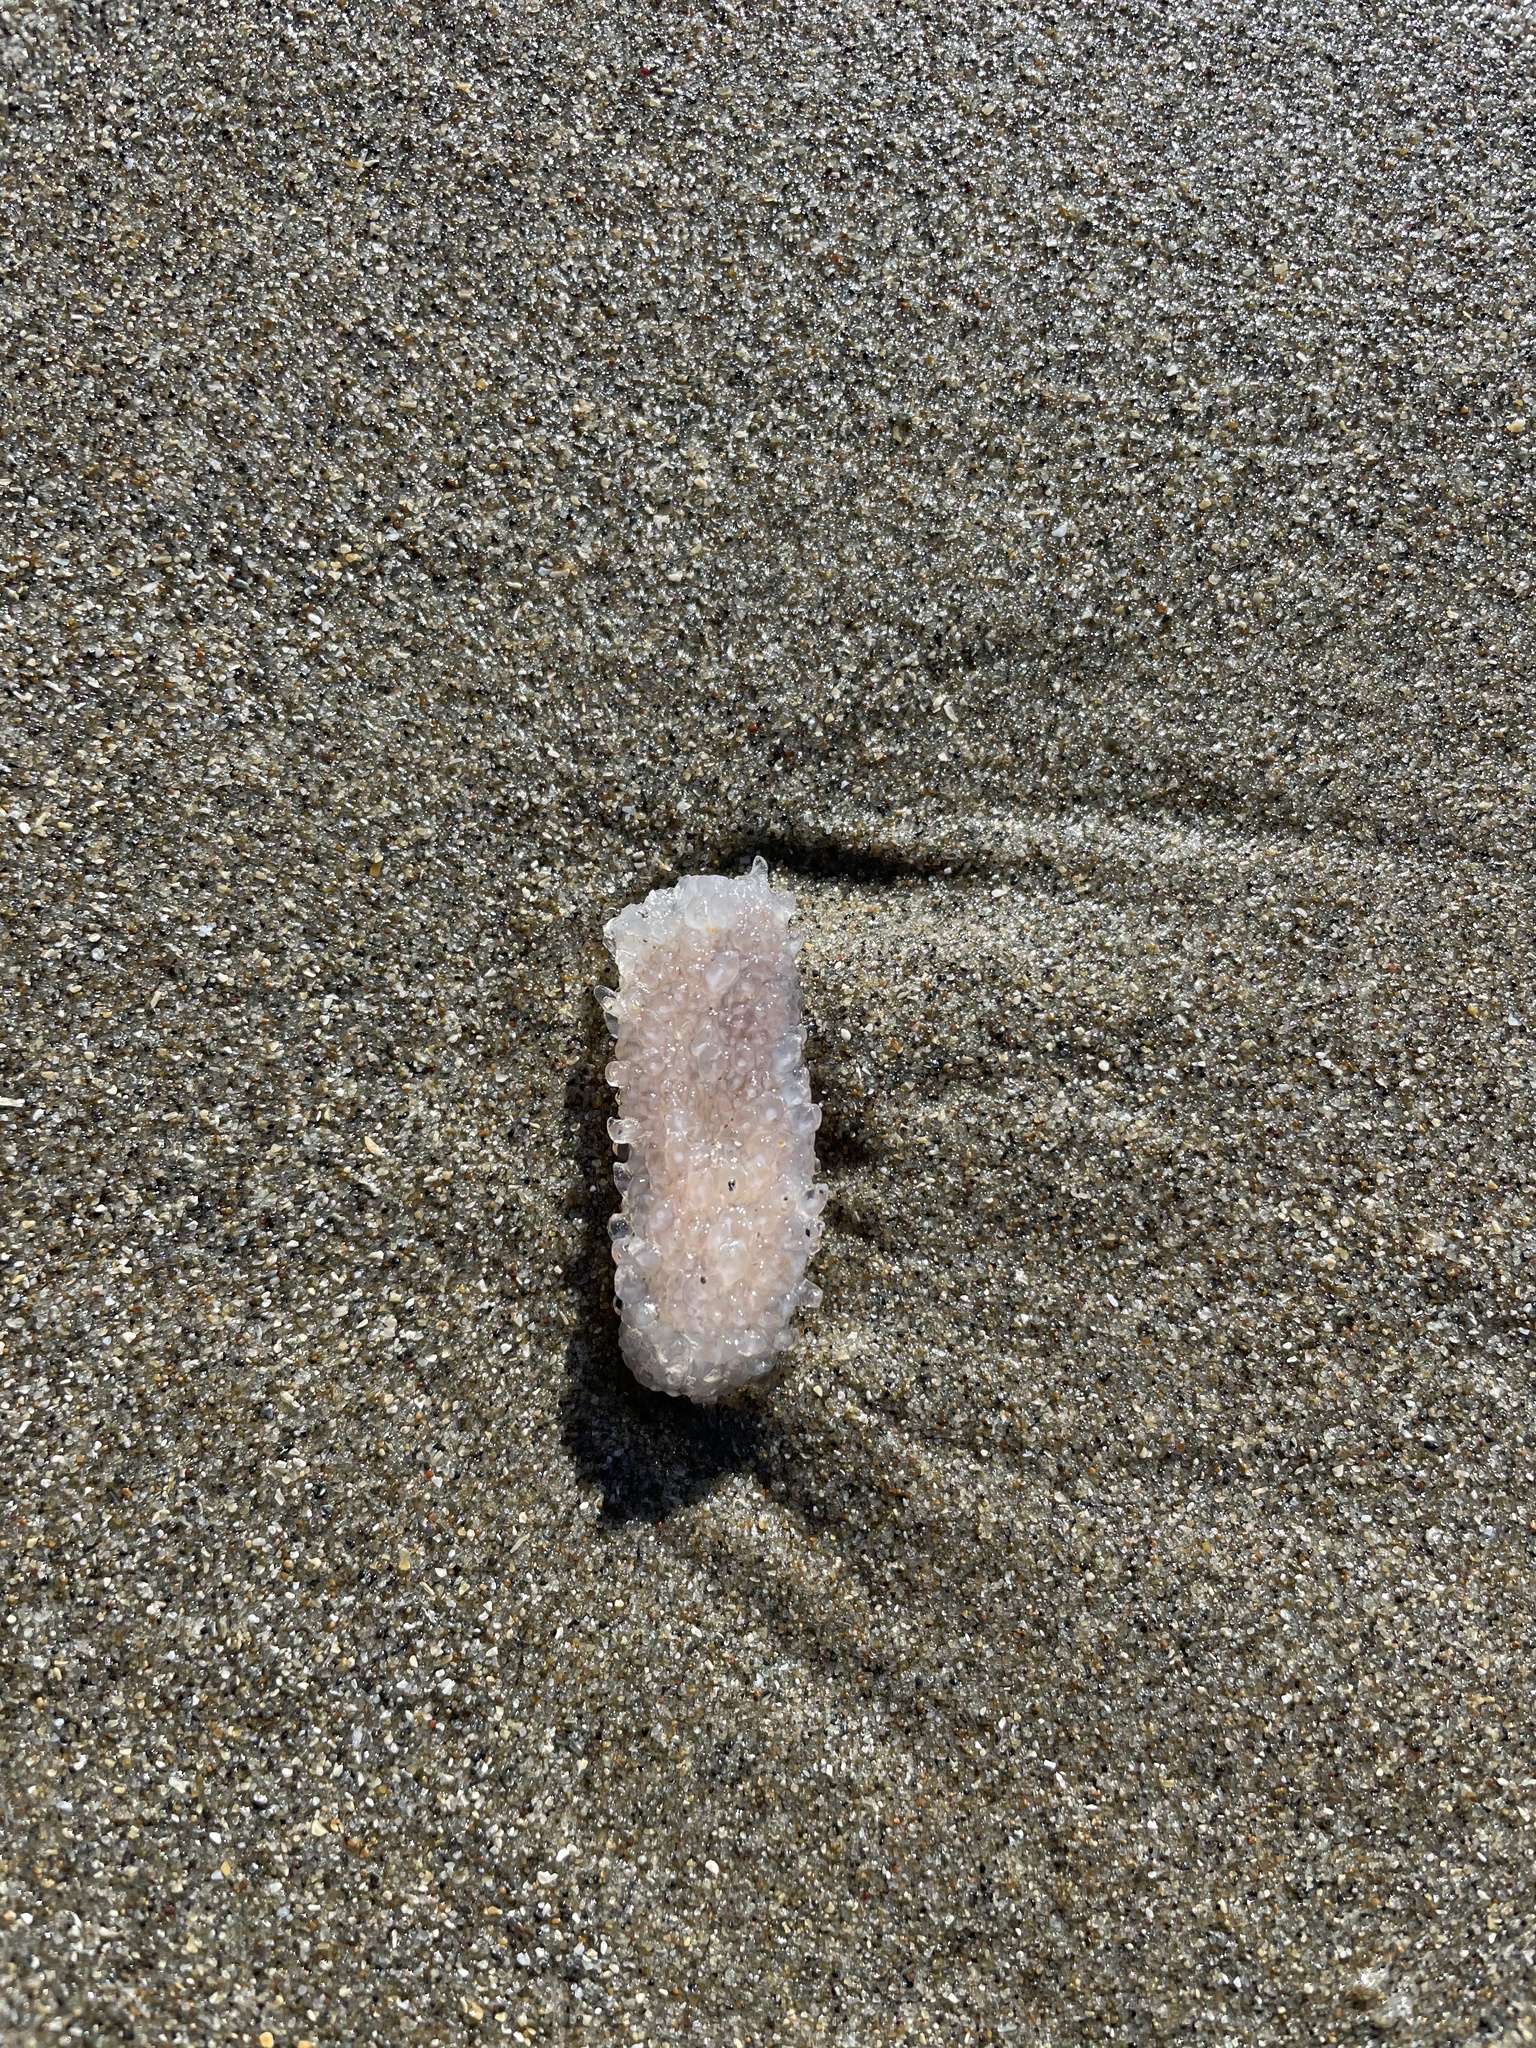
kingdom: Animalia
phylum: Chordata
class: Thaliacea
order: Pyrosomatida
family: Pyrosomatidae
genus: Pyrosoma
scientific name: Pyrosoma atlanticum
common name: Atlantic pyrosomes
